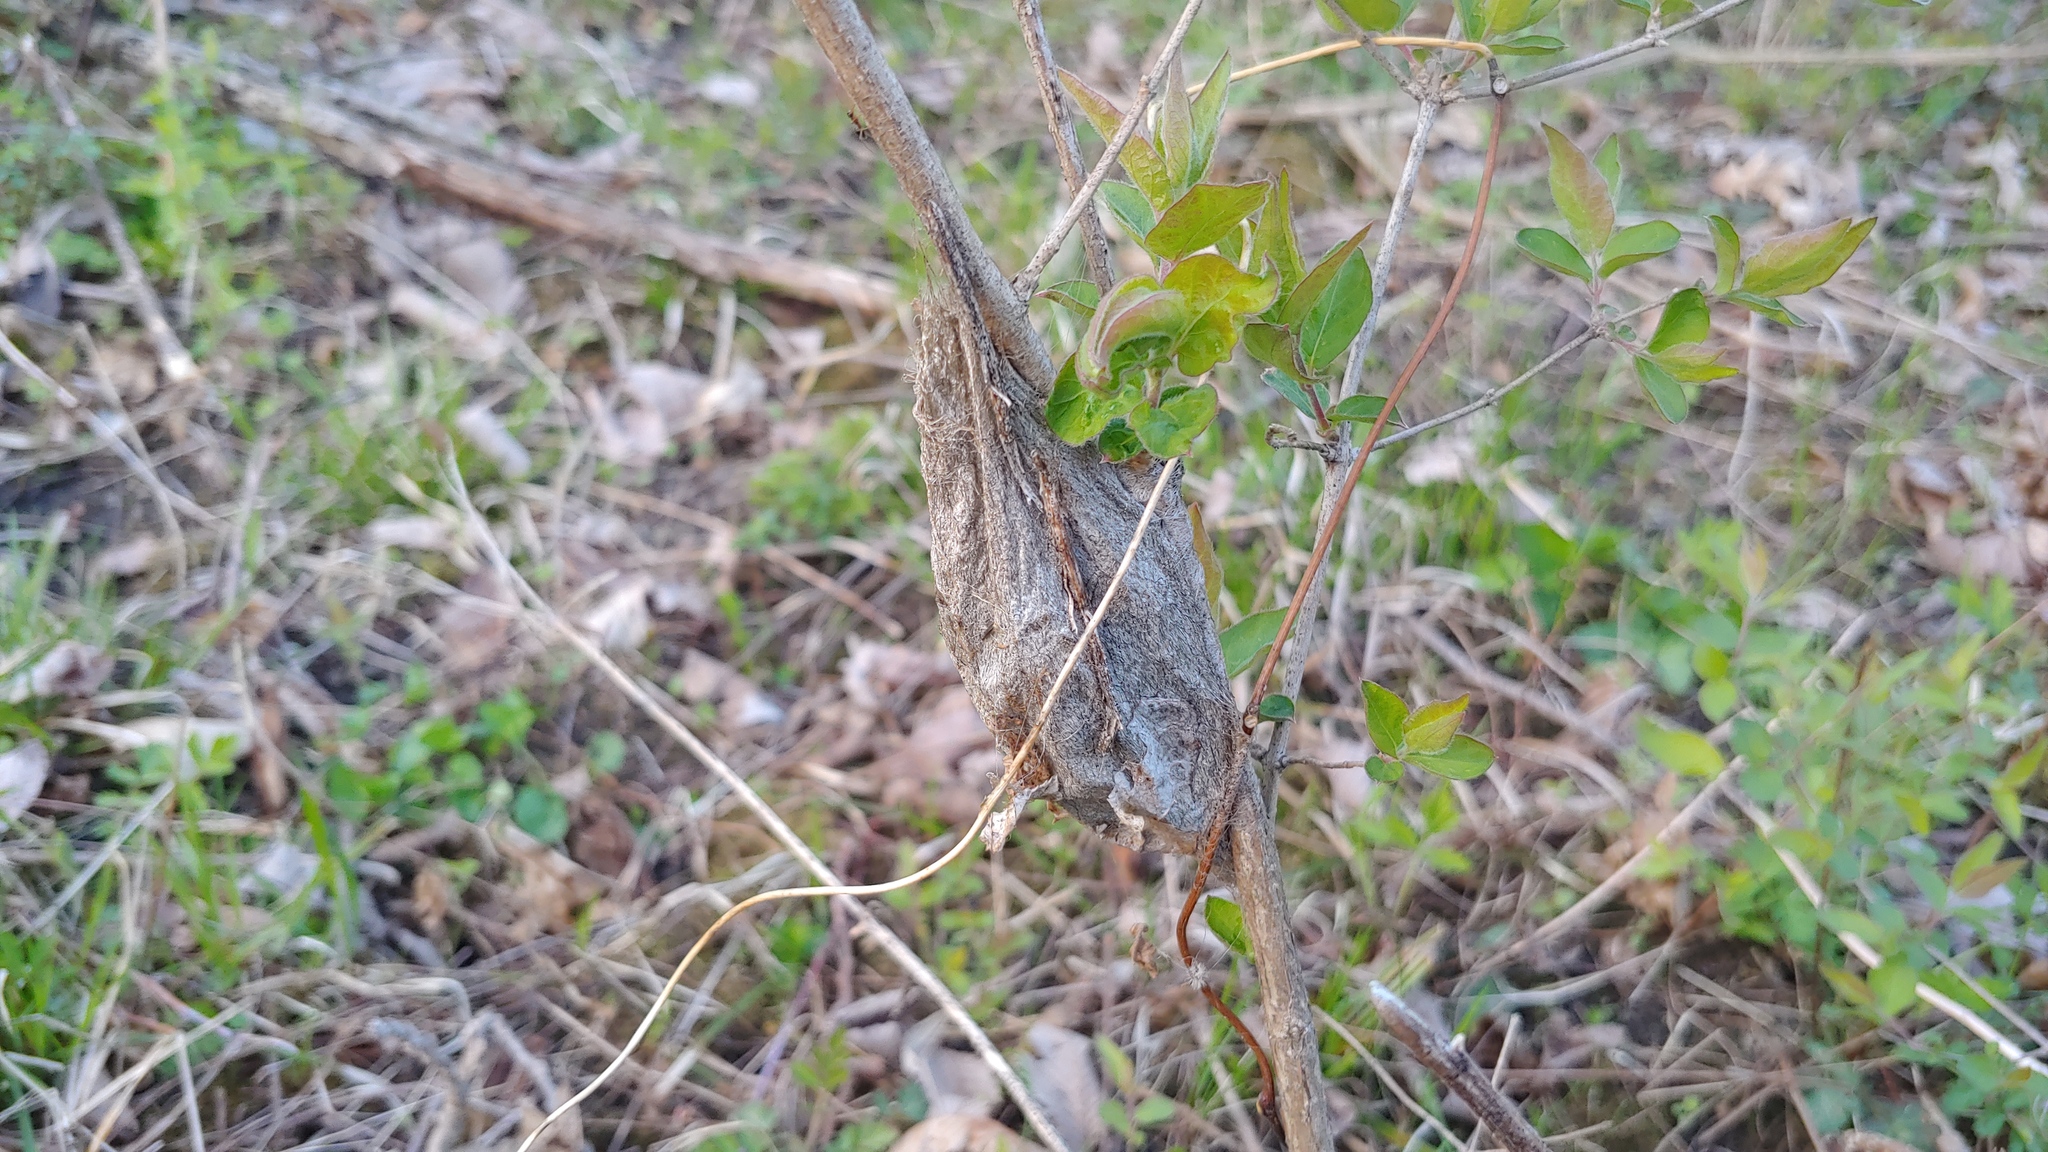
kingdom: Animalia
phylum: Arthropoda
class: Insecta
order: Lepidoptera
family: Saturniidae
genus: Hyalophora
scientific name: Hyalophora cecropia
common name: Cecropia silkmoth
